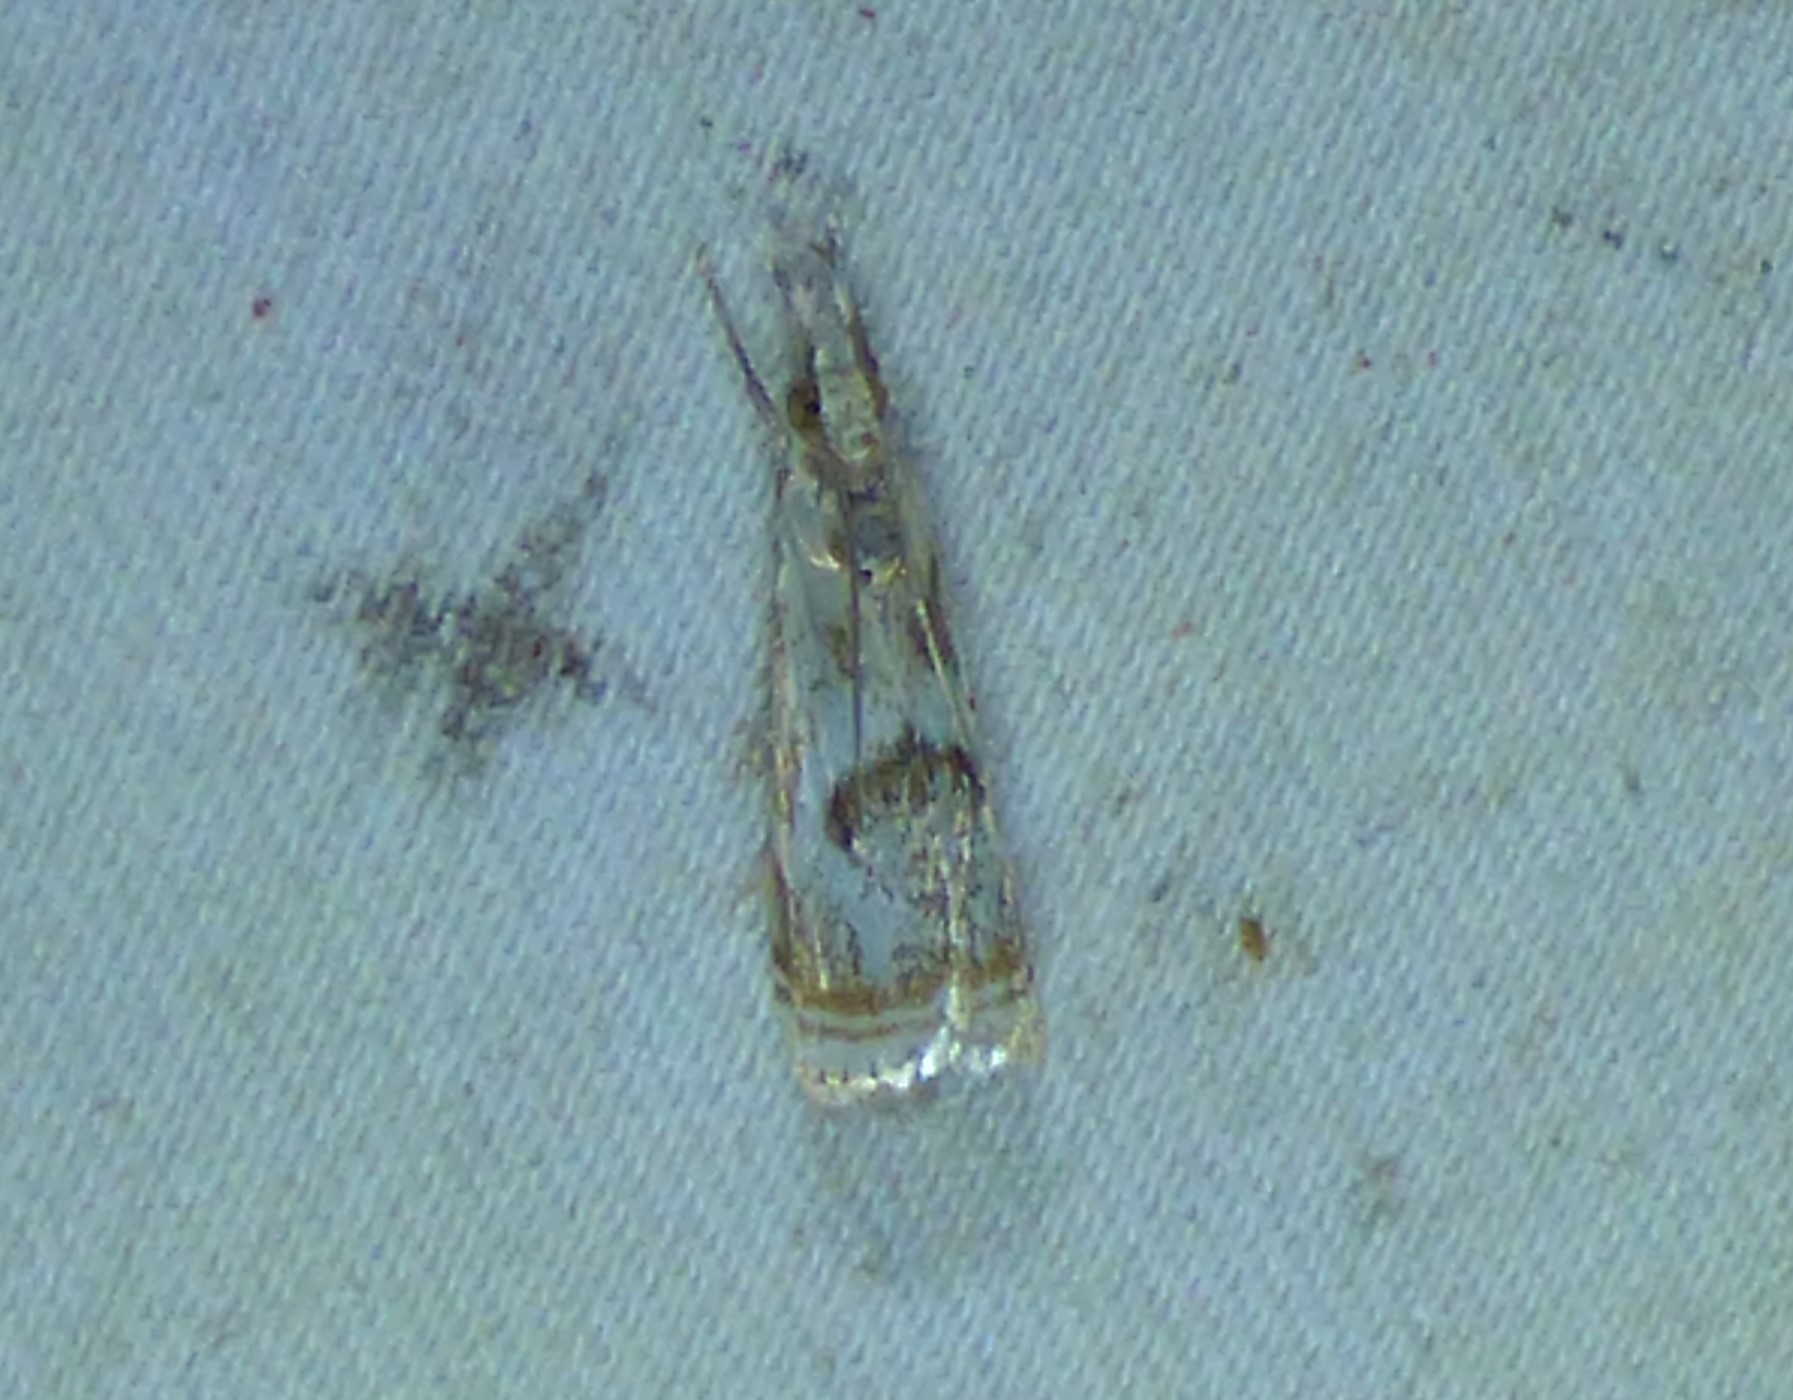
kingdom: Animalia
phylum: Arthropoda
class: Insecta
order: Lepidoptera
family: Crambidae
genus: Microcrambus
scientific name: Microcrambus elegans
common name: Elegant grass-veneer
